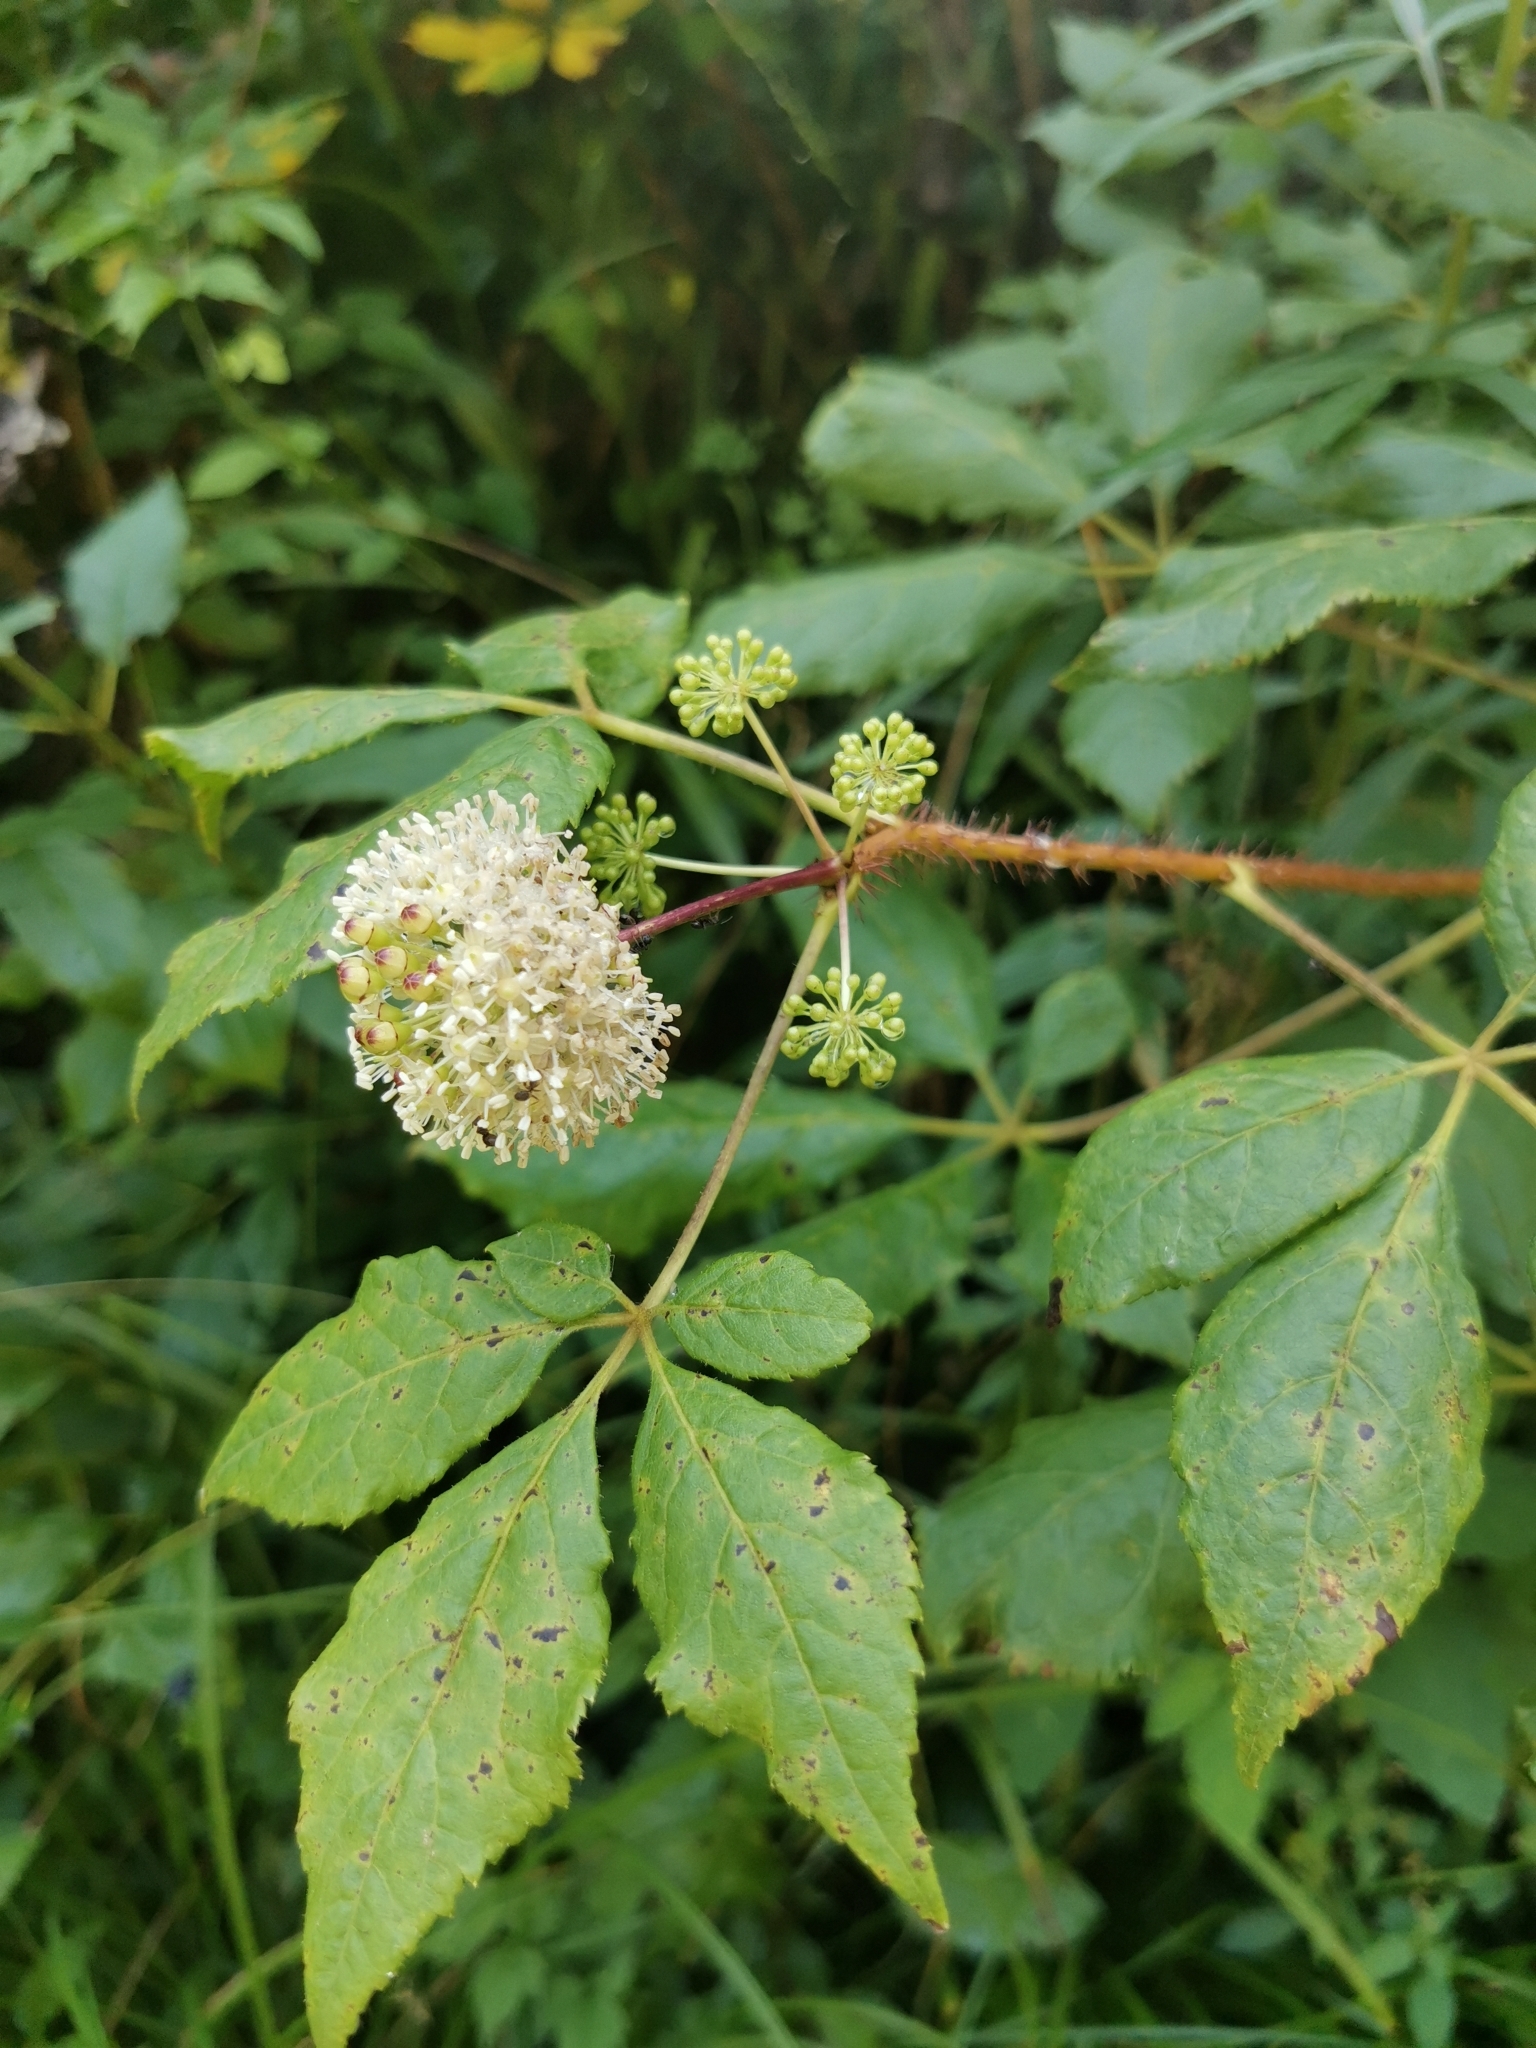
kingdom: Plantae
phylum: Tracheophyta
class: Magnoliopsida
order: Apiales
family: Araliaceae
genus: Eleutherococcus
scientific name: Eleutherococcus senticosus
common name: Siberian-ginseng
